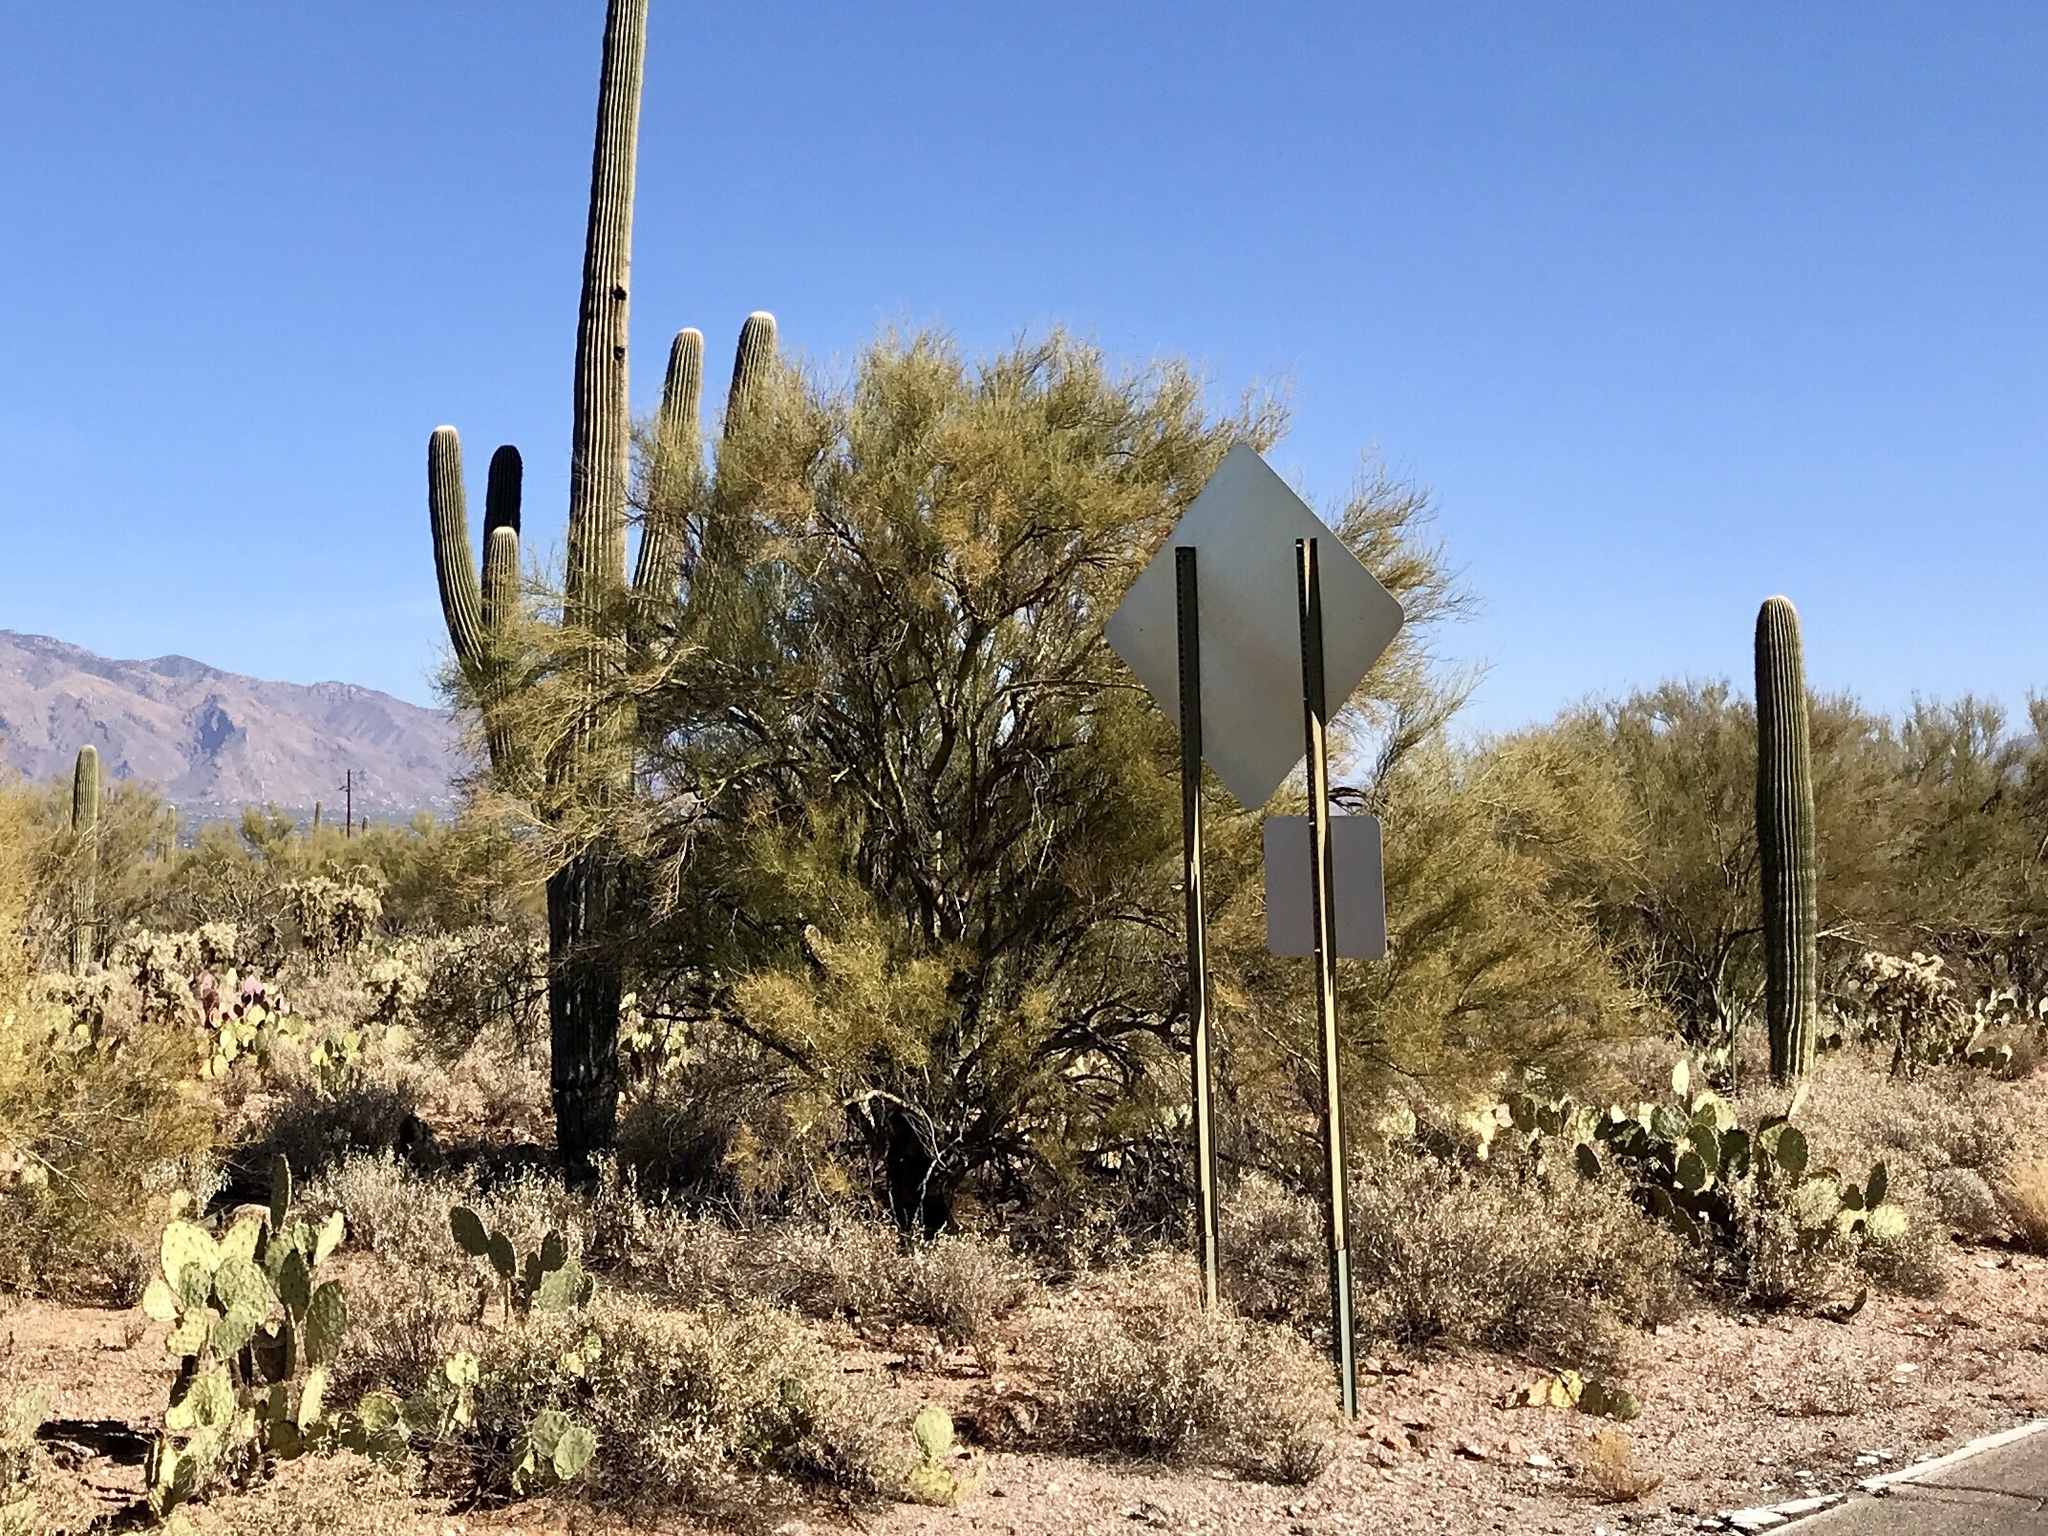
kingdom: Plantae
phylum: Tracheophyta
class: Magnoliopsida
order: Fabales
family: Fabaceae
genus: Parkinsonia
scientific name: Parkinsonia florida
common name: Blue paloverde
